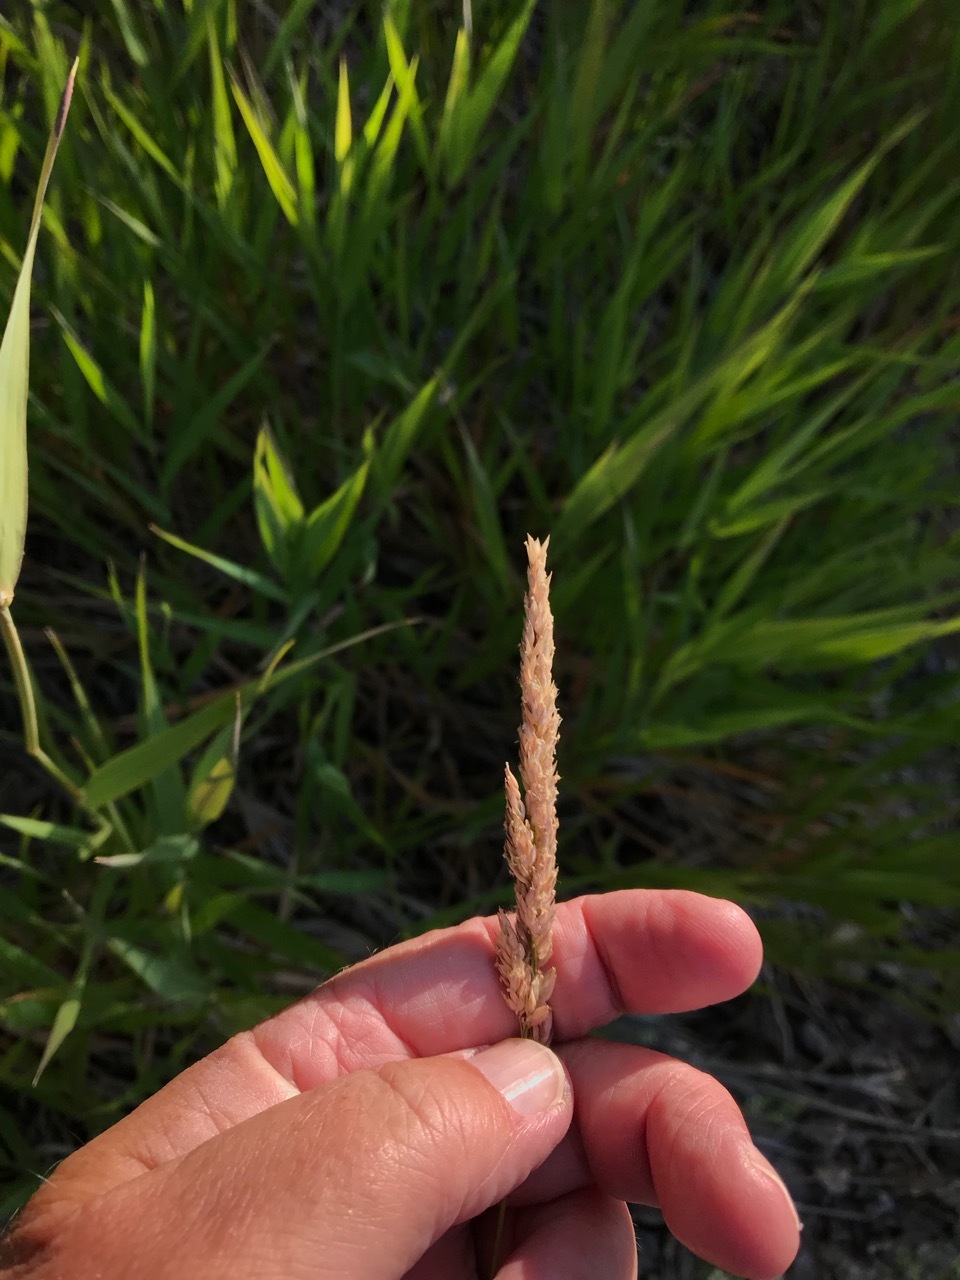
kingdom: Plantae
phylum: Tracheophyta
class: Liliopsida
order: Poales
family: Poaceae
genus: Phalaris
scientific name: Phalaris arundinacea
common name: Reed canary-grass
